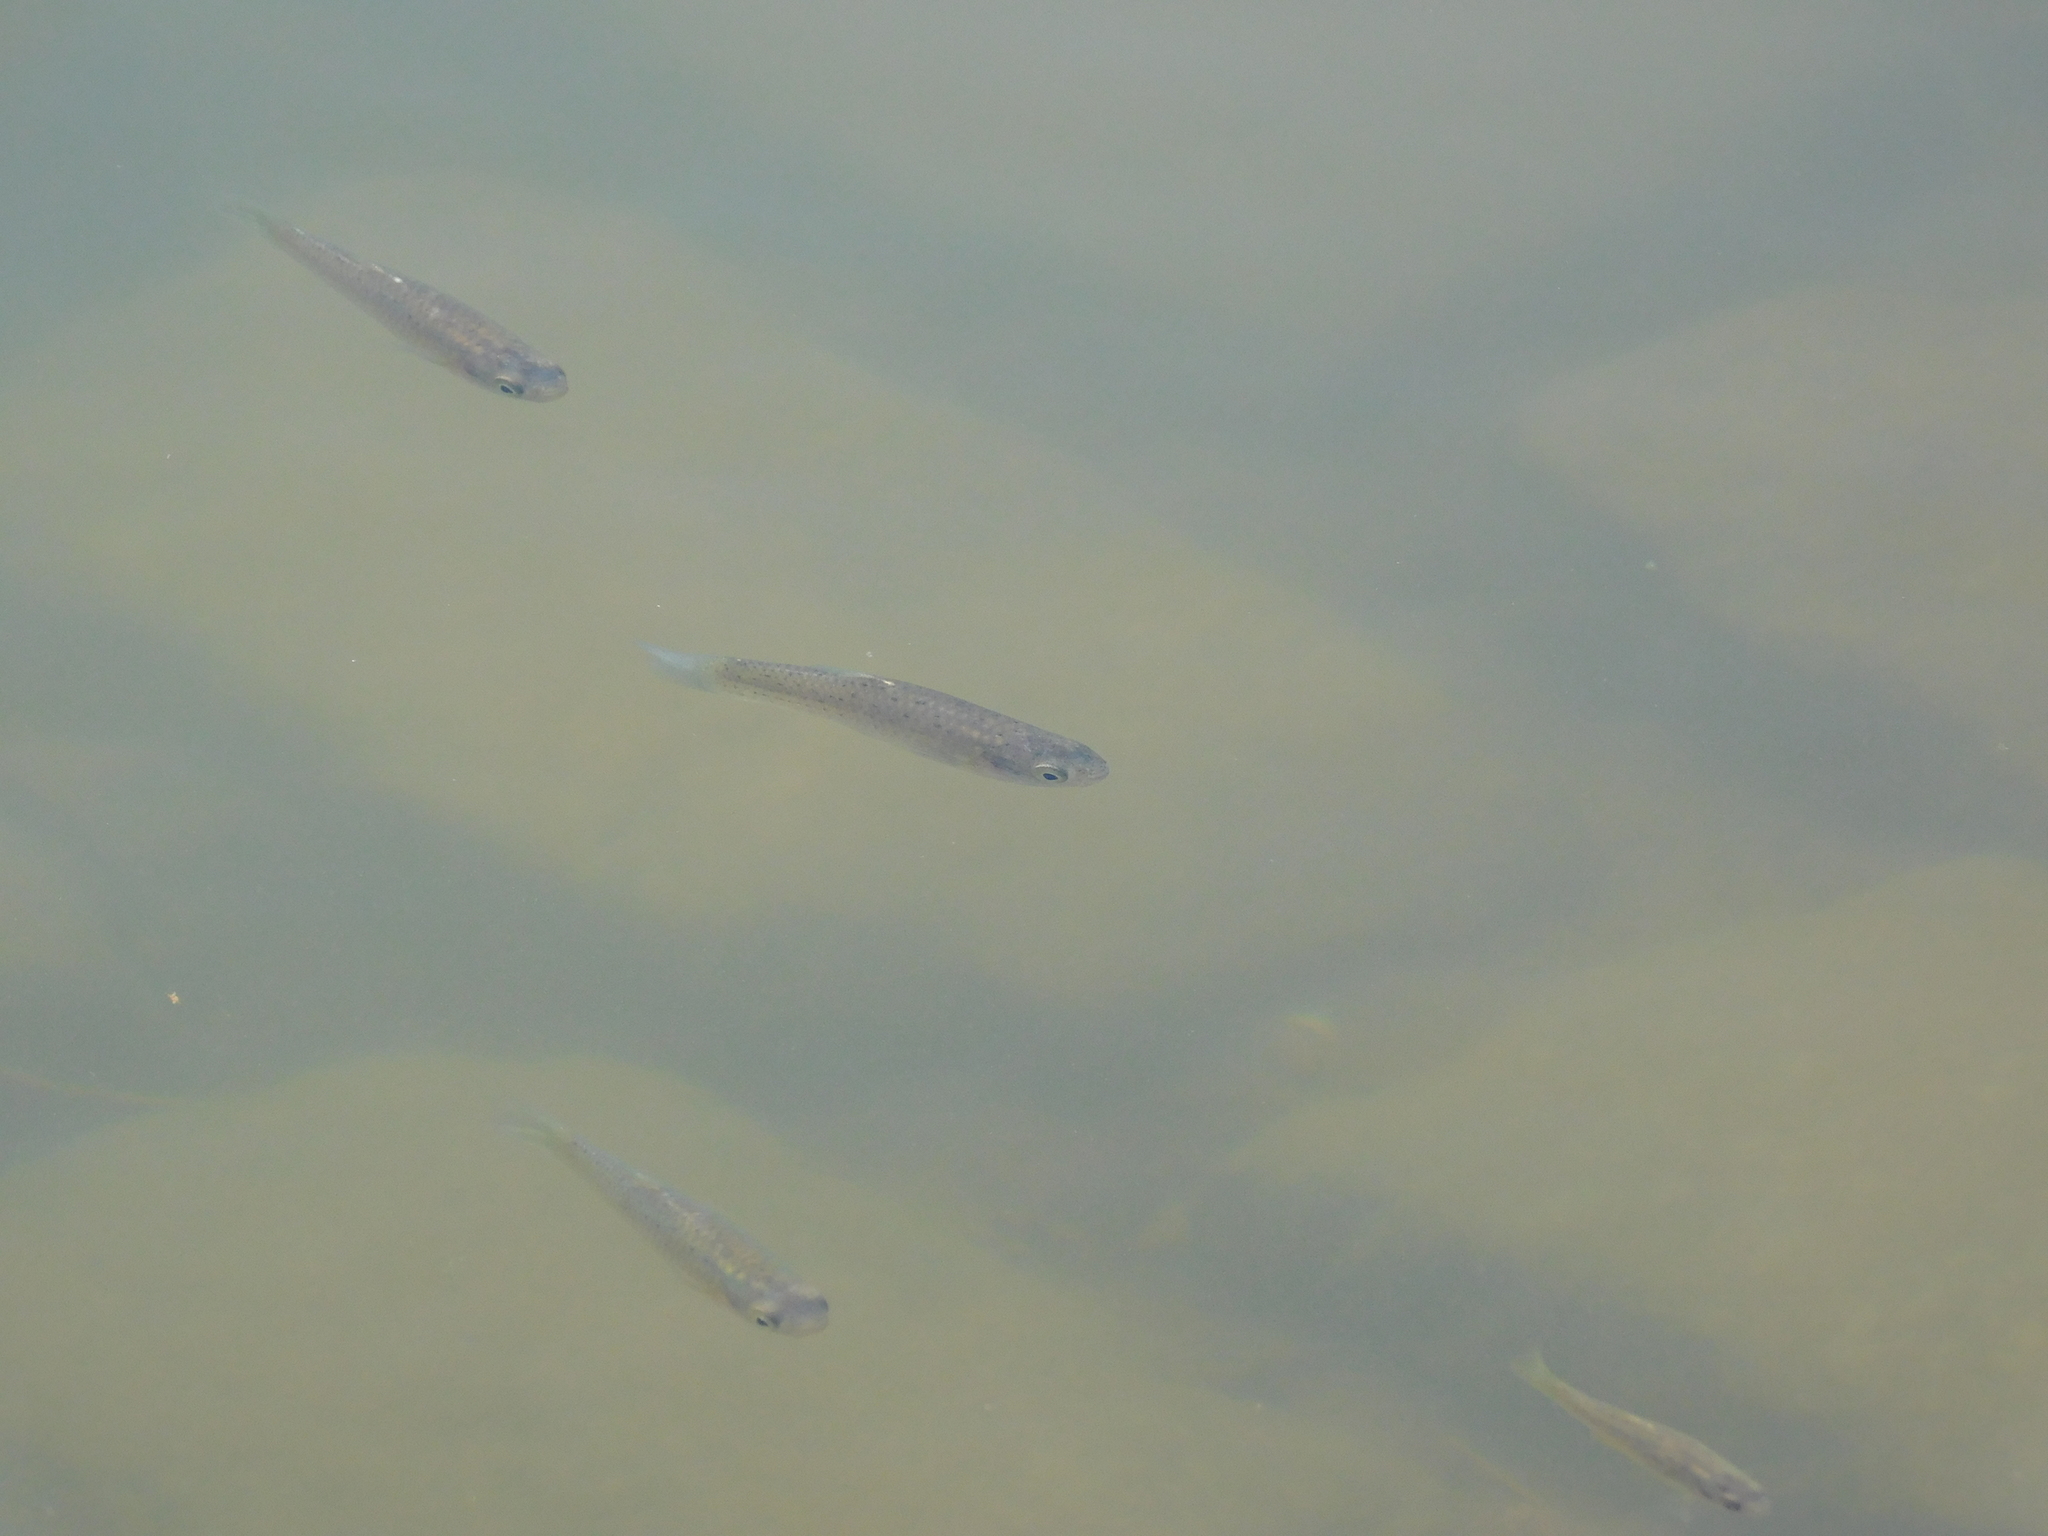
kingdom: Animalia
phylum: Chordata
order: Cyprinodontiformes
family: Anablepidae
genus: Jenynsia
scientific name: Jenynsia lineata
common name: Onesided livebearer
